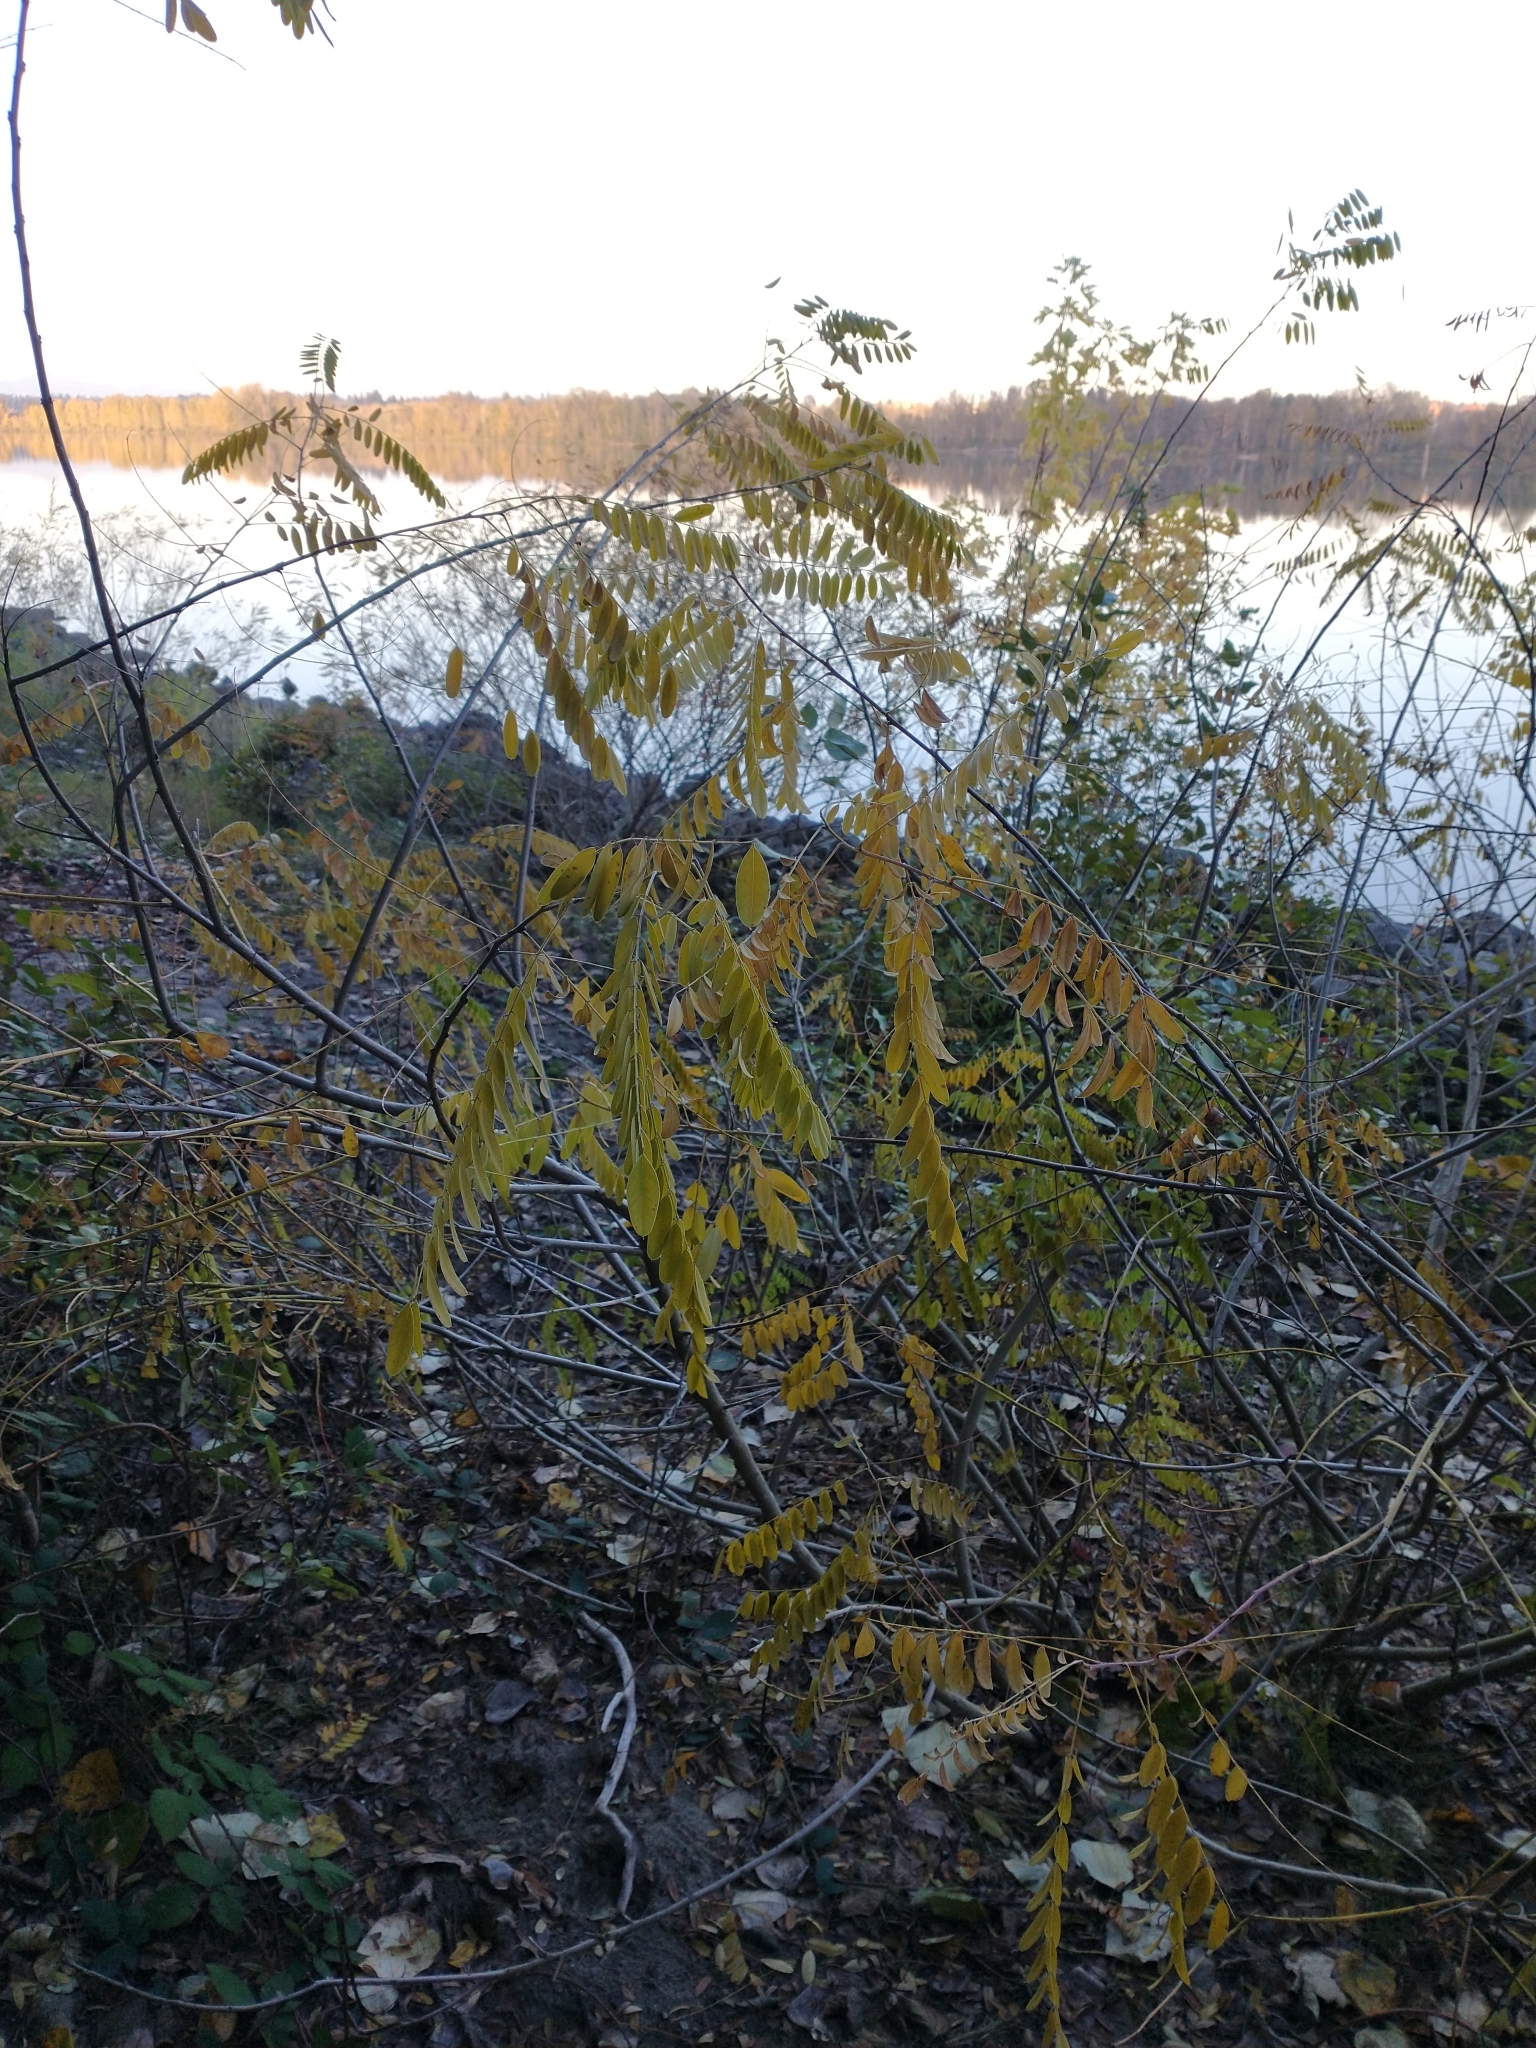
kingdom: Plantae
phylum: Tracheophyta
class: Magnoliopsida
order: Fabales
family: Fabaceae
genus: Amorpha
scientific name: Amorpha fruticosa
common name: False indigo
